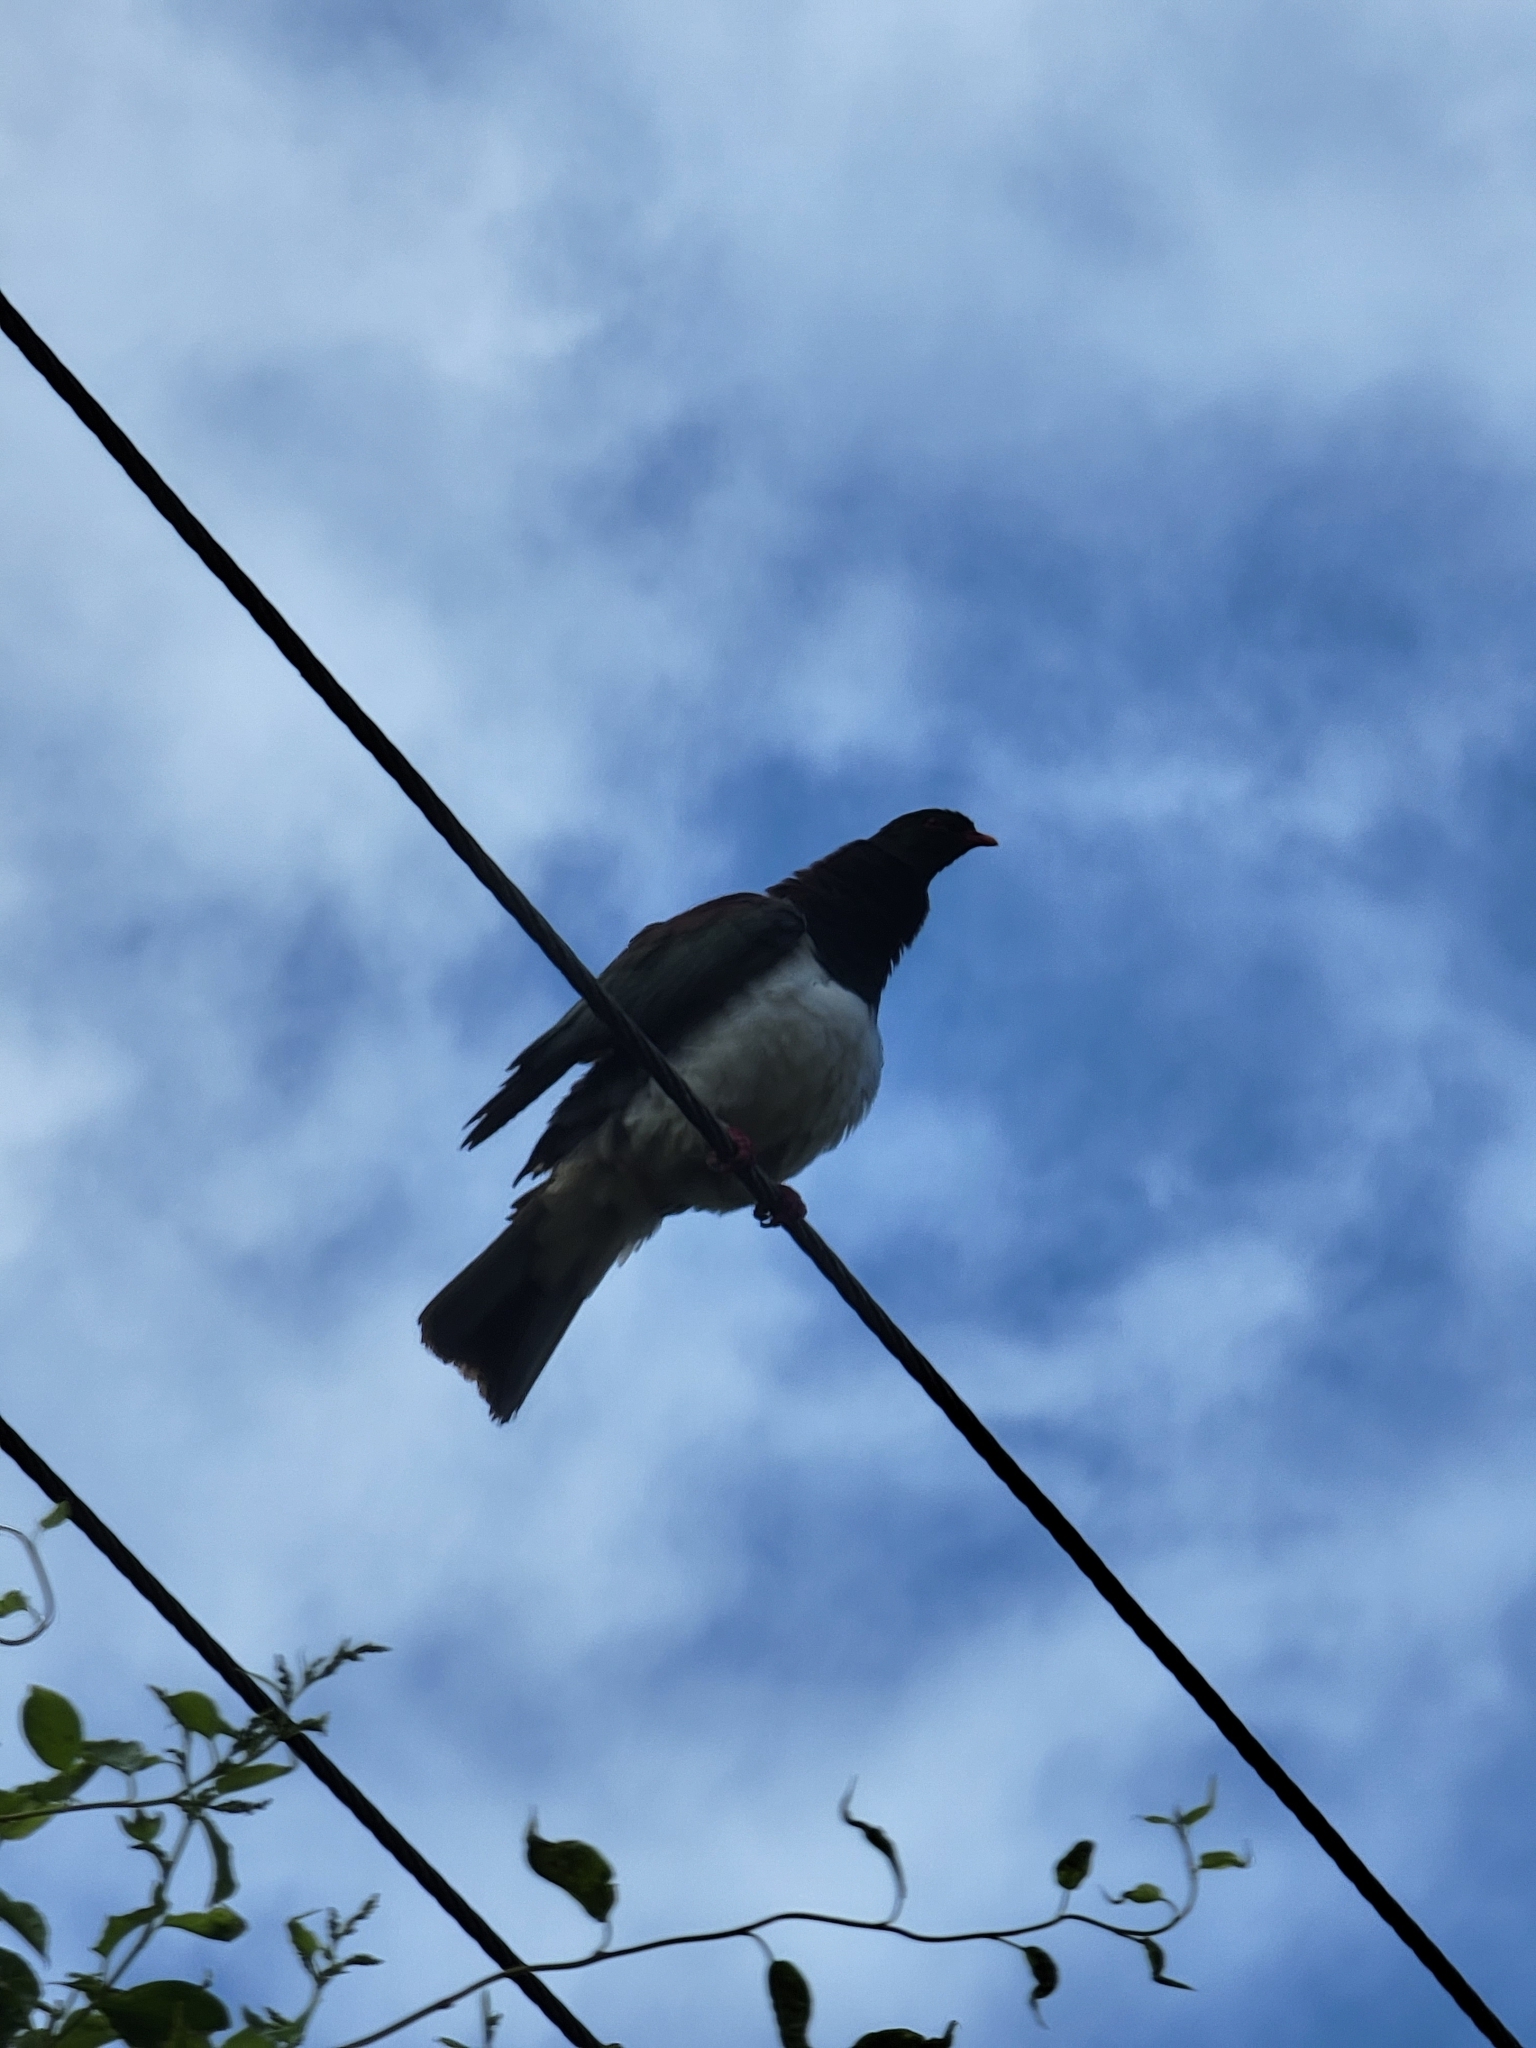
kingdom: Animalia
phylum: Chordata
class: Aves
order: Columbiformes
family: Columbidae
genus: Hemiphaga
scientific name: Hemiphaga novaeseelandiae
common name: New zealand pigeon
